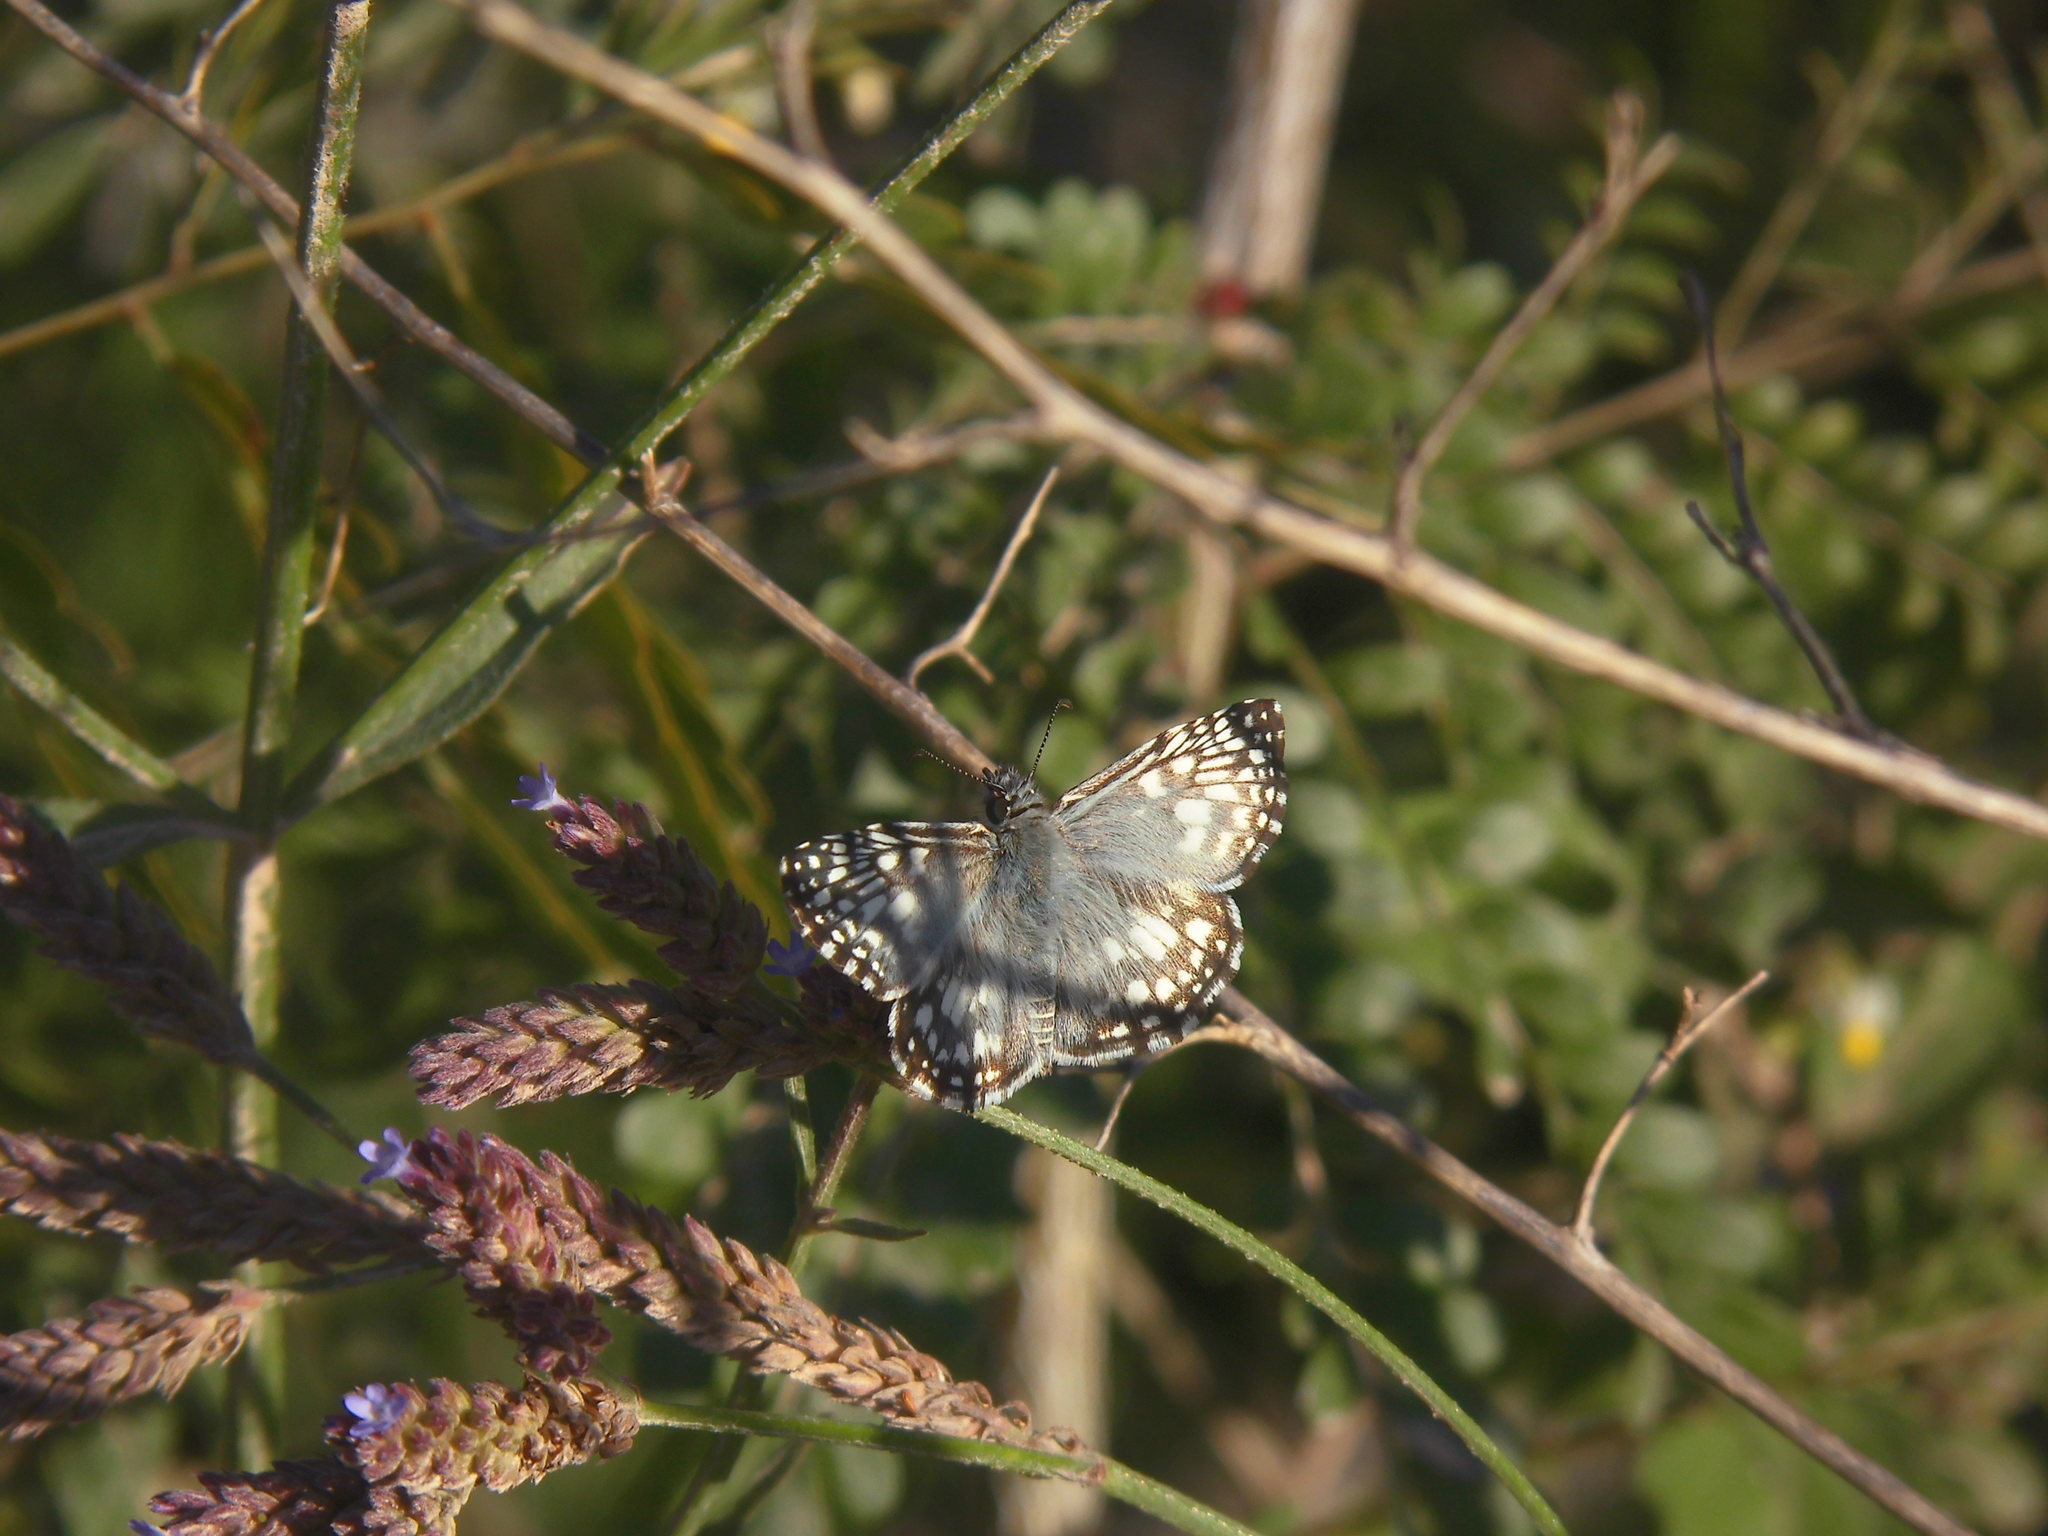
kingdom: Animalia
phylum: Arthropoda
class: Insecta
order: Lepidoptera
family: Hesperiidae
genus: Pyrgus
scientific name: Pyrgus oileus
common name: Tropical checkered-skipper
